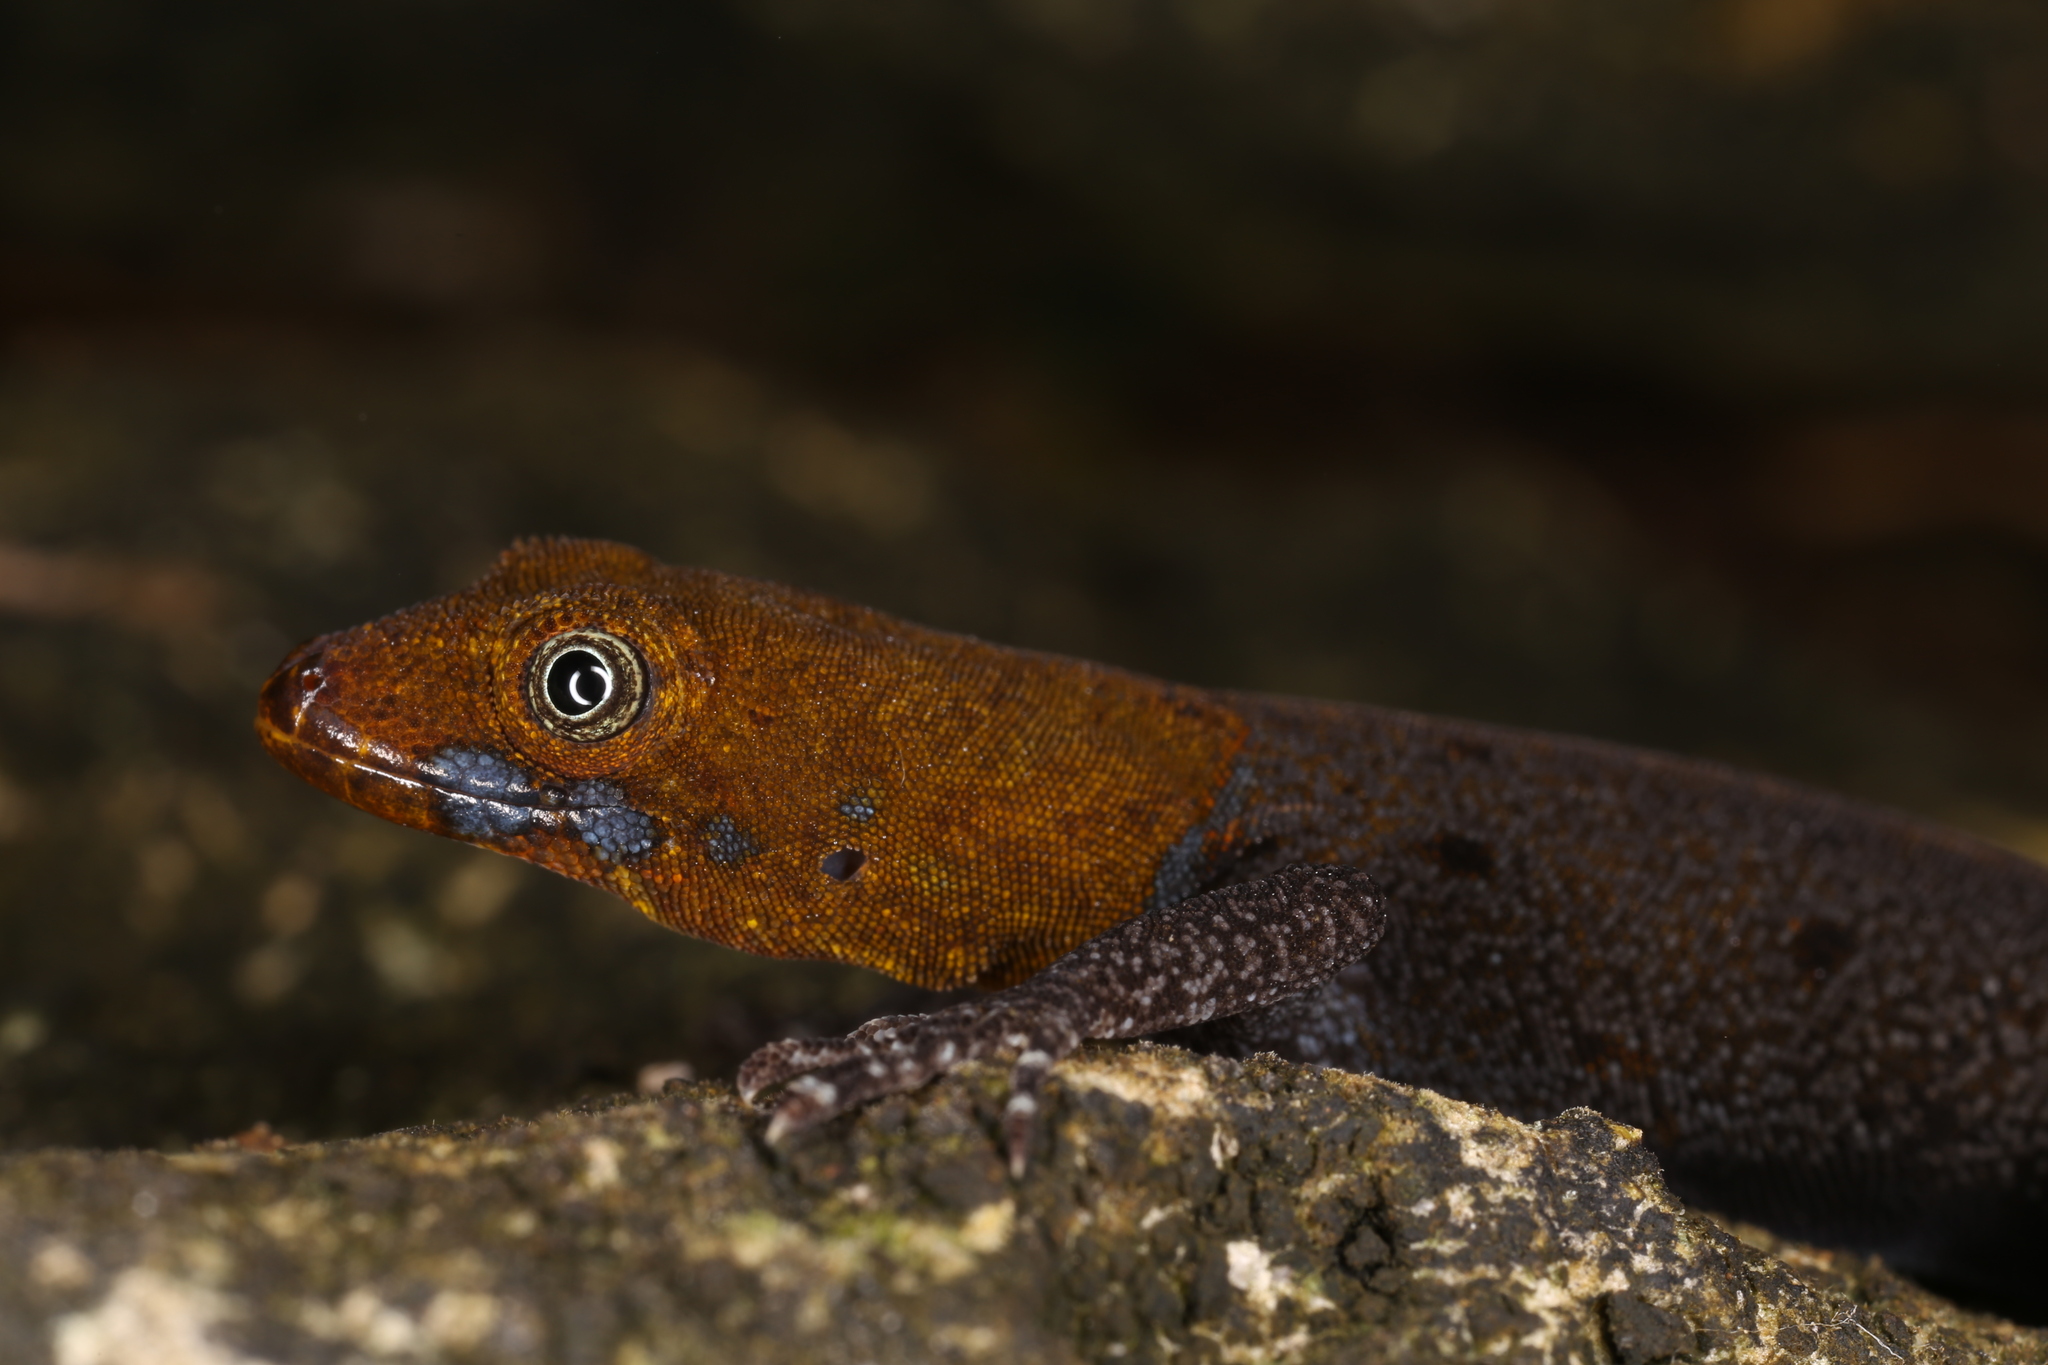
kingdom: Animalia
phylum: Chordata
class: Squamata
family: Sphaerodactylidae
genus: Gonatodes
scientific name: Gonatodes albogularis
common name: Yellow-headed gecko
